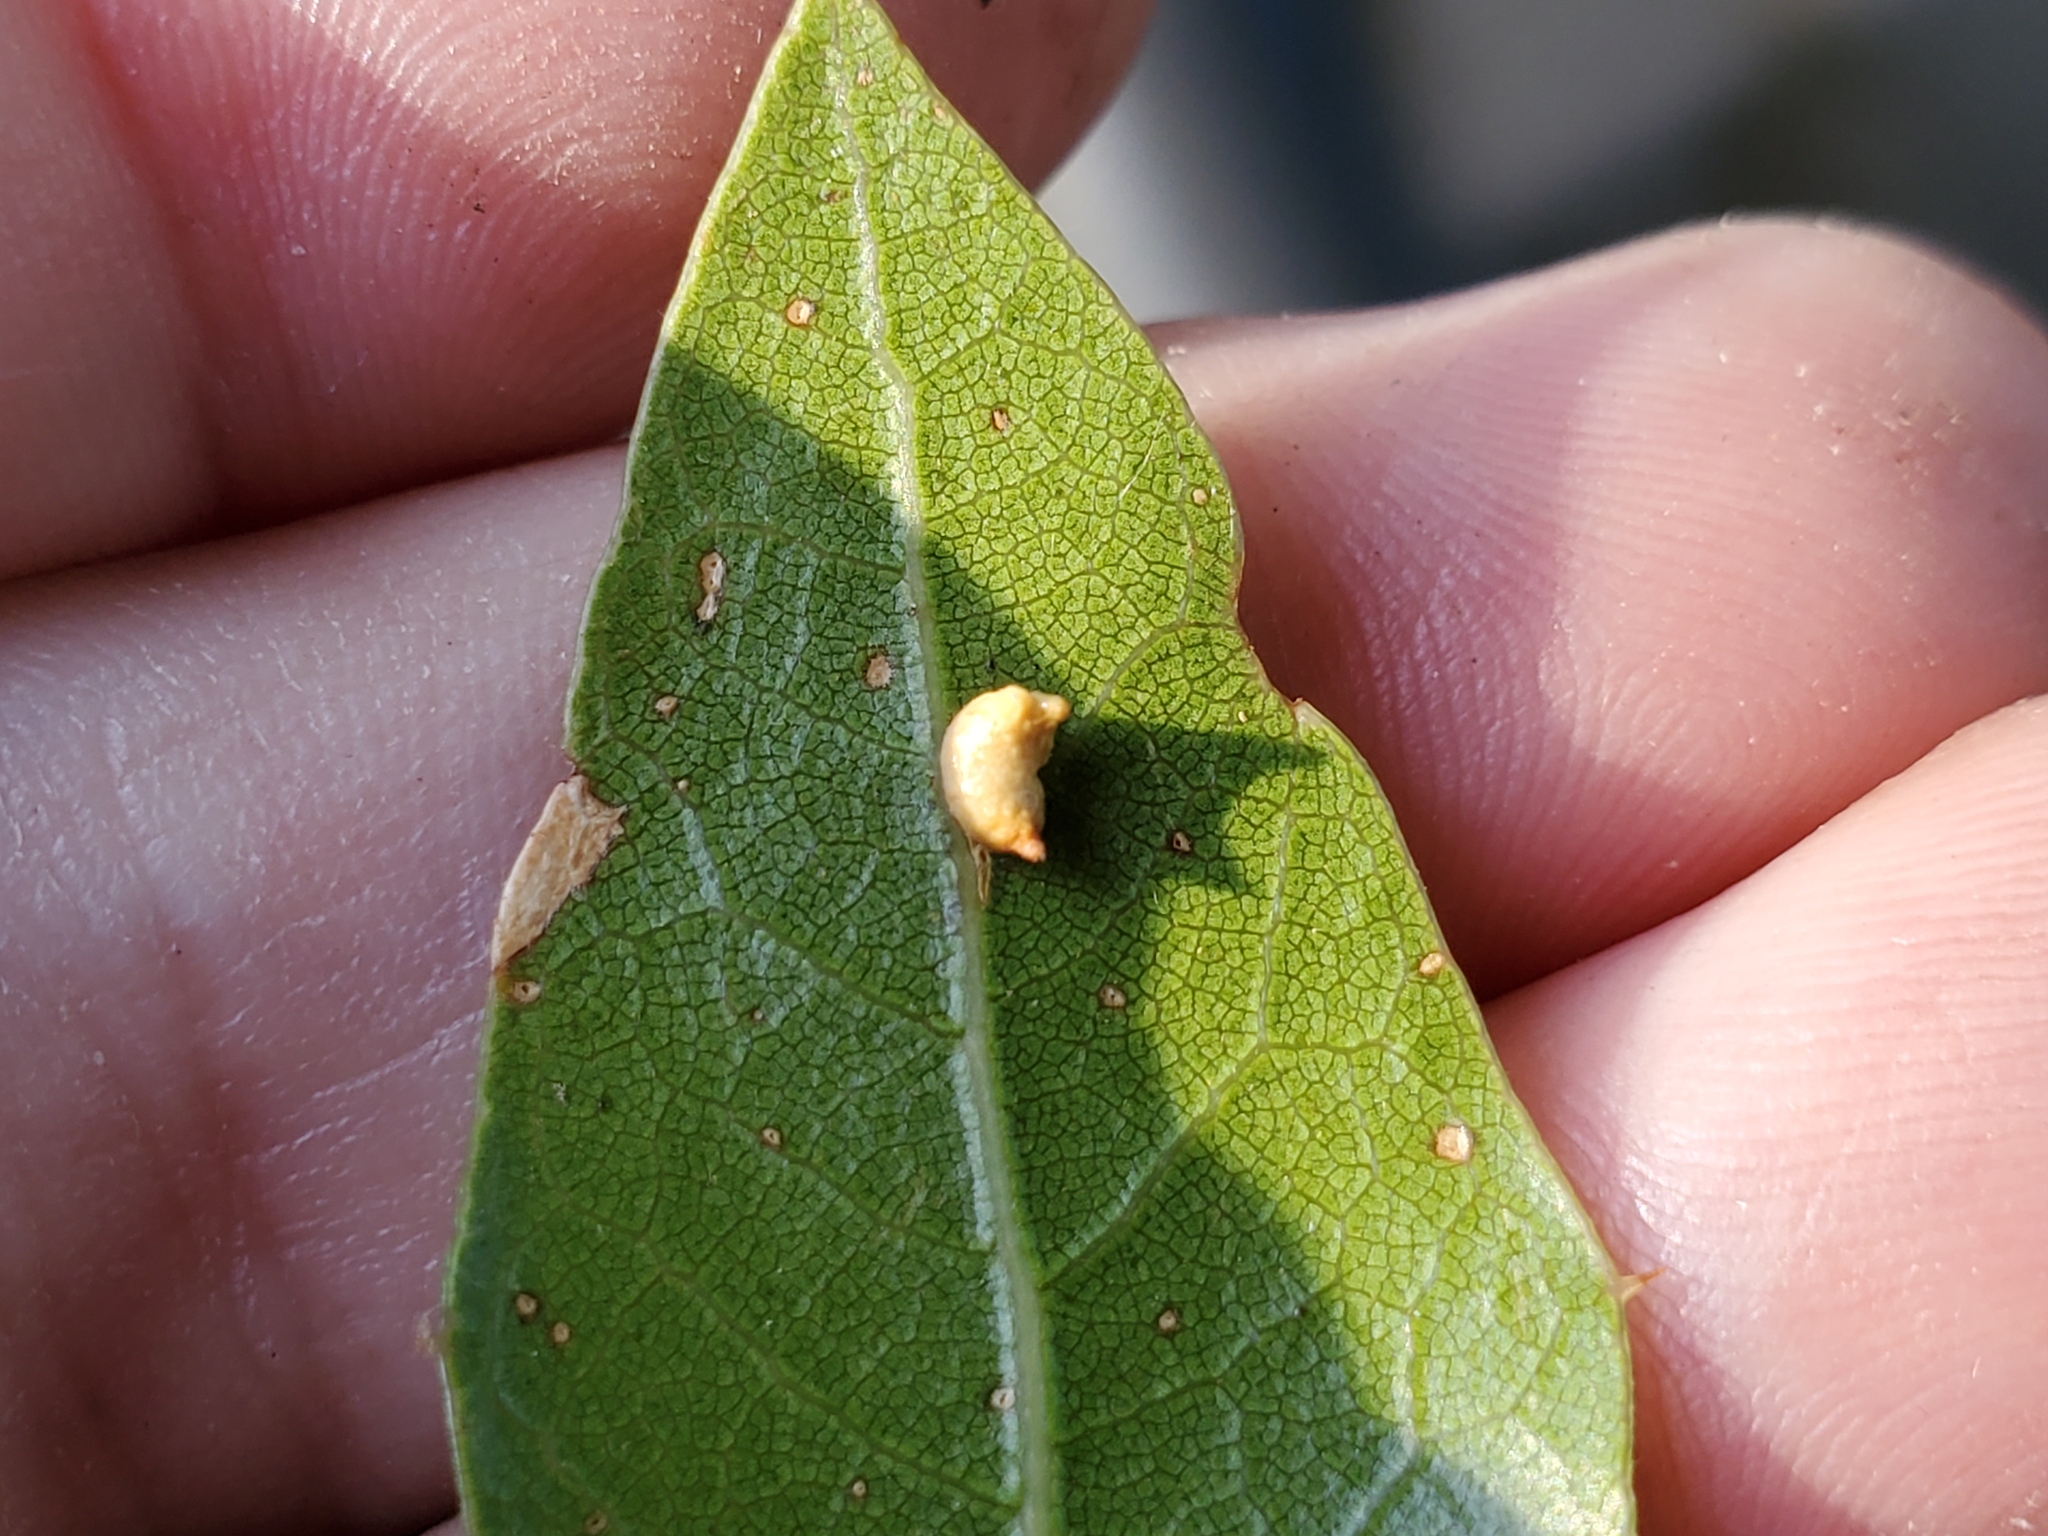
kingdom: Animalia
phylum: Arthropoda
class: Insecta
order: Hymenoptera
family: Cynipidae
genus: Dryocosmus
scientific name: Dryocosmus
